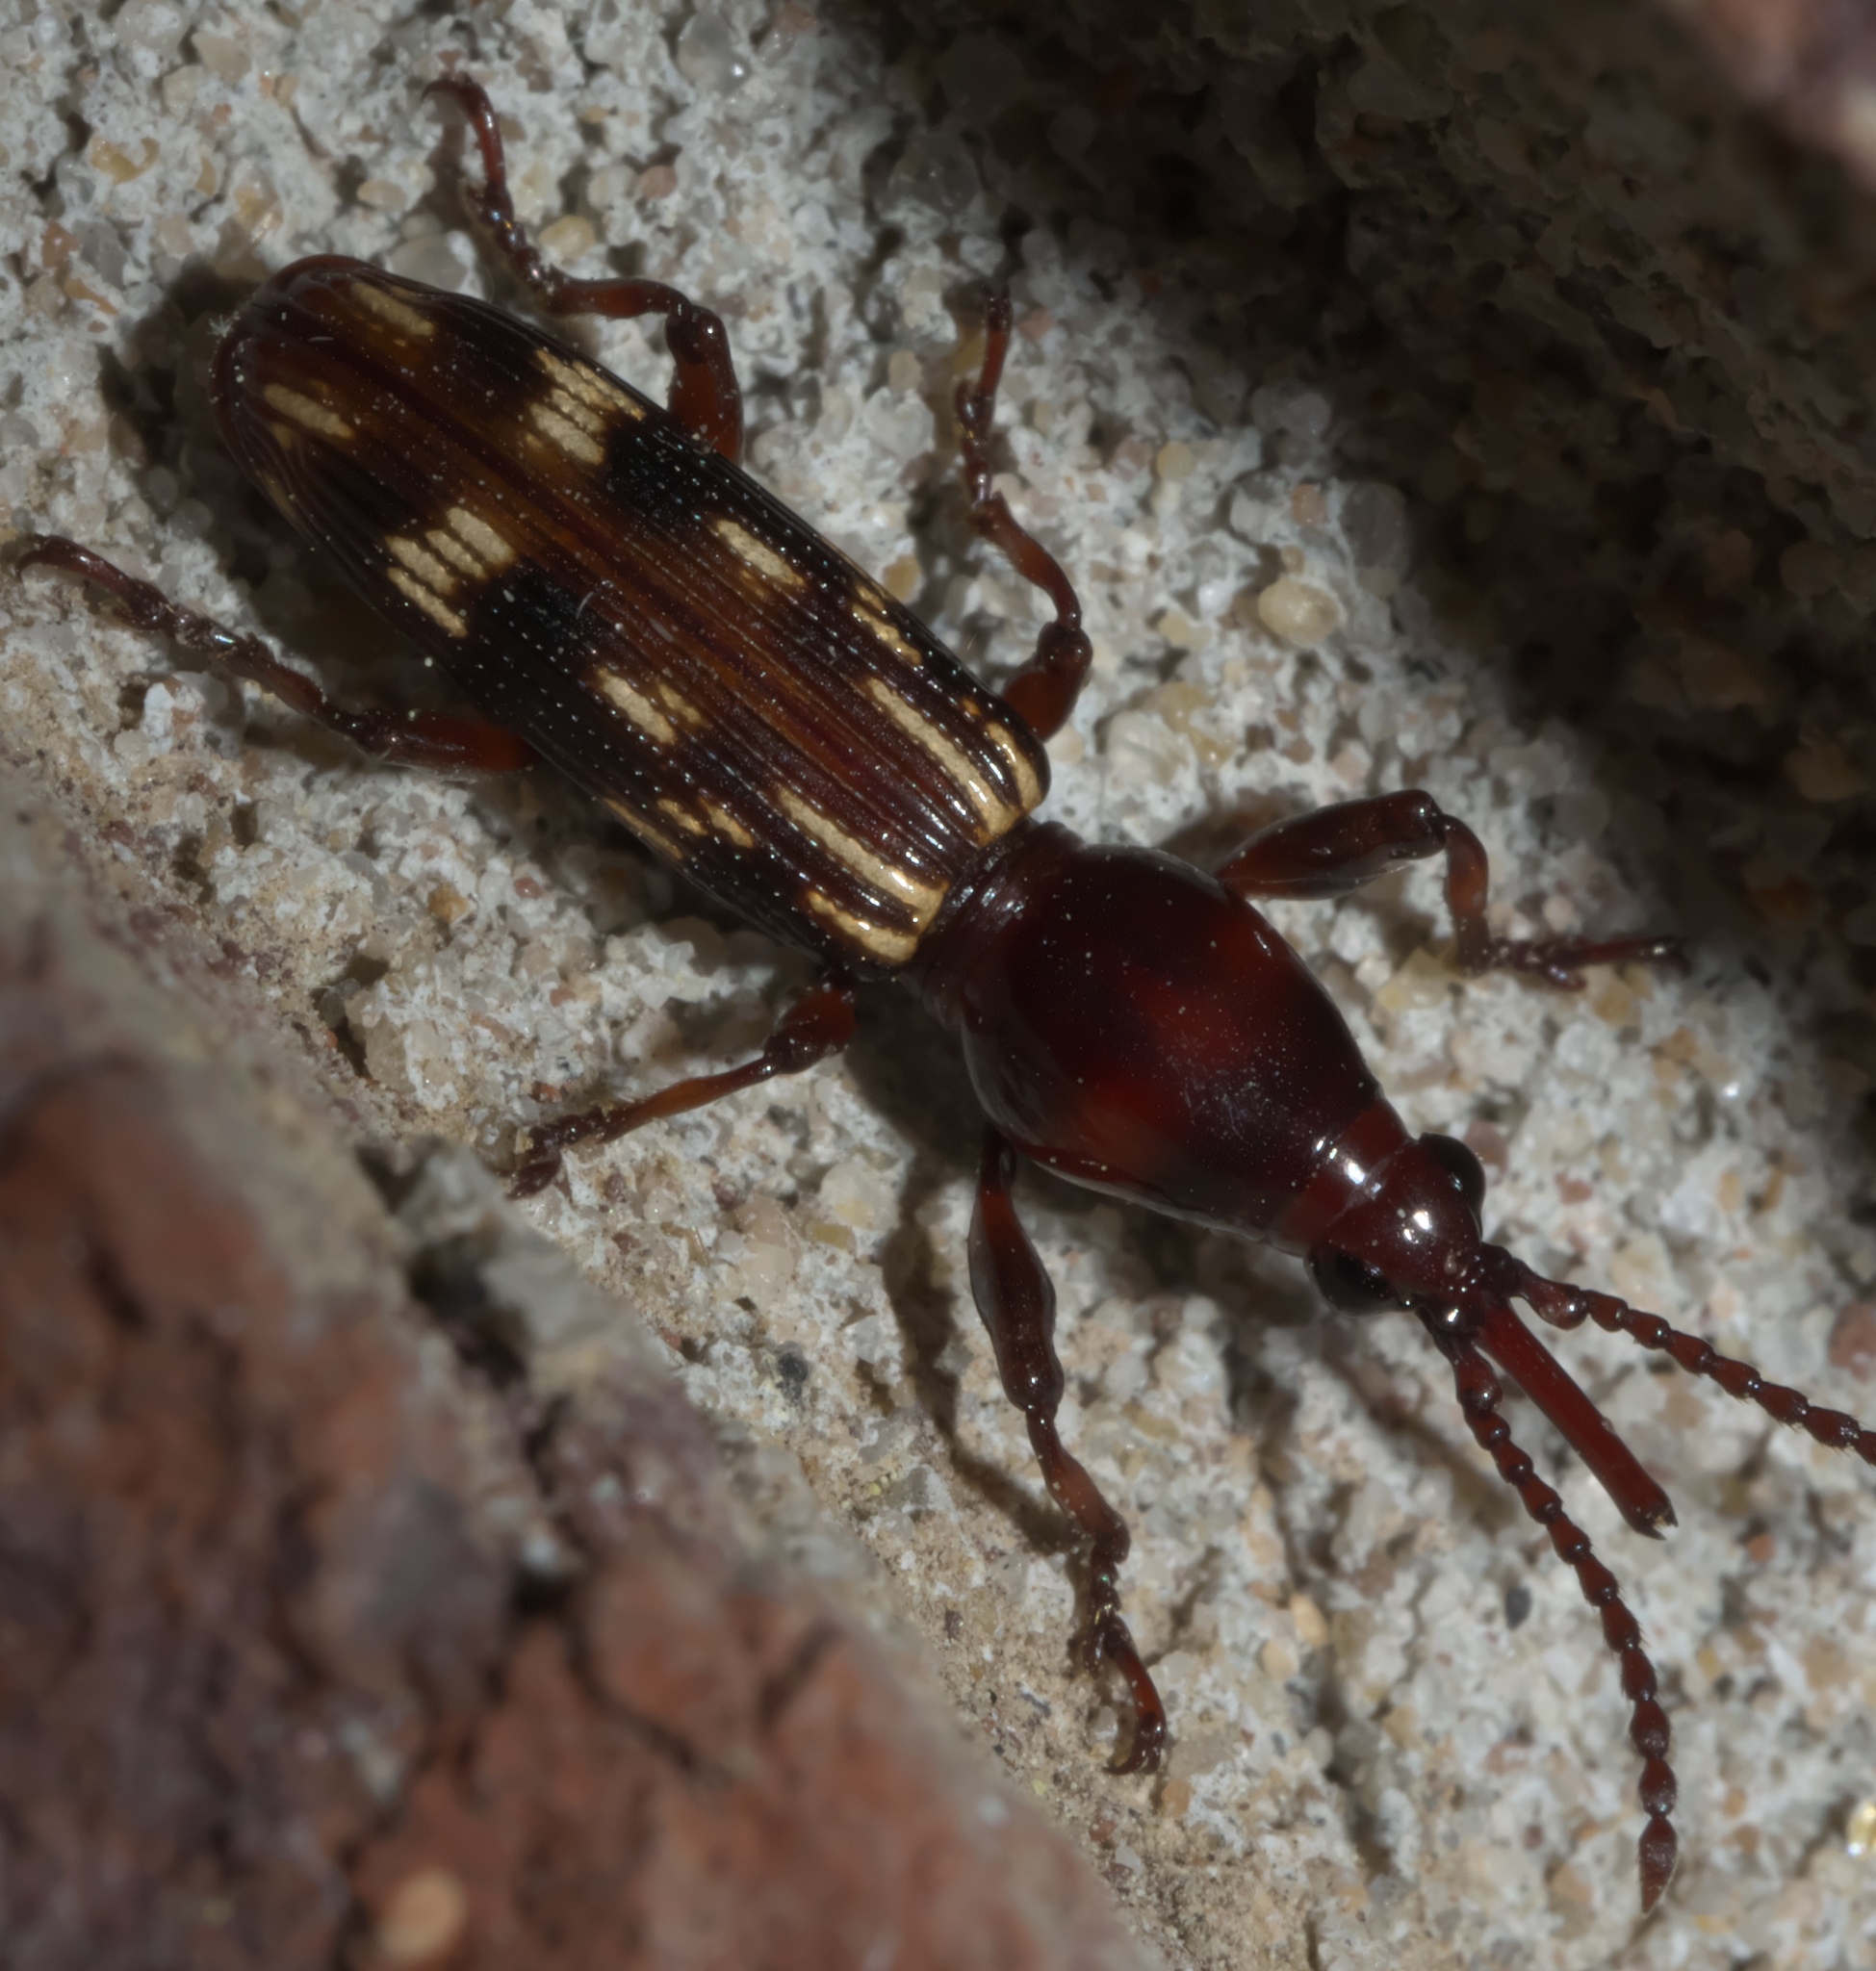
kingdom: Animalia
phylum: Arthropoda
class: Insecta
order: Coleoptera
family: Brentidae
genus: Arrenodes
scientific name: Arrenodes minutus
